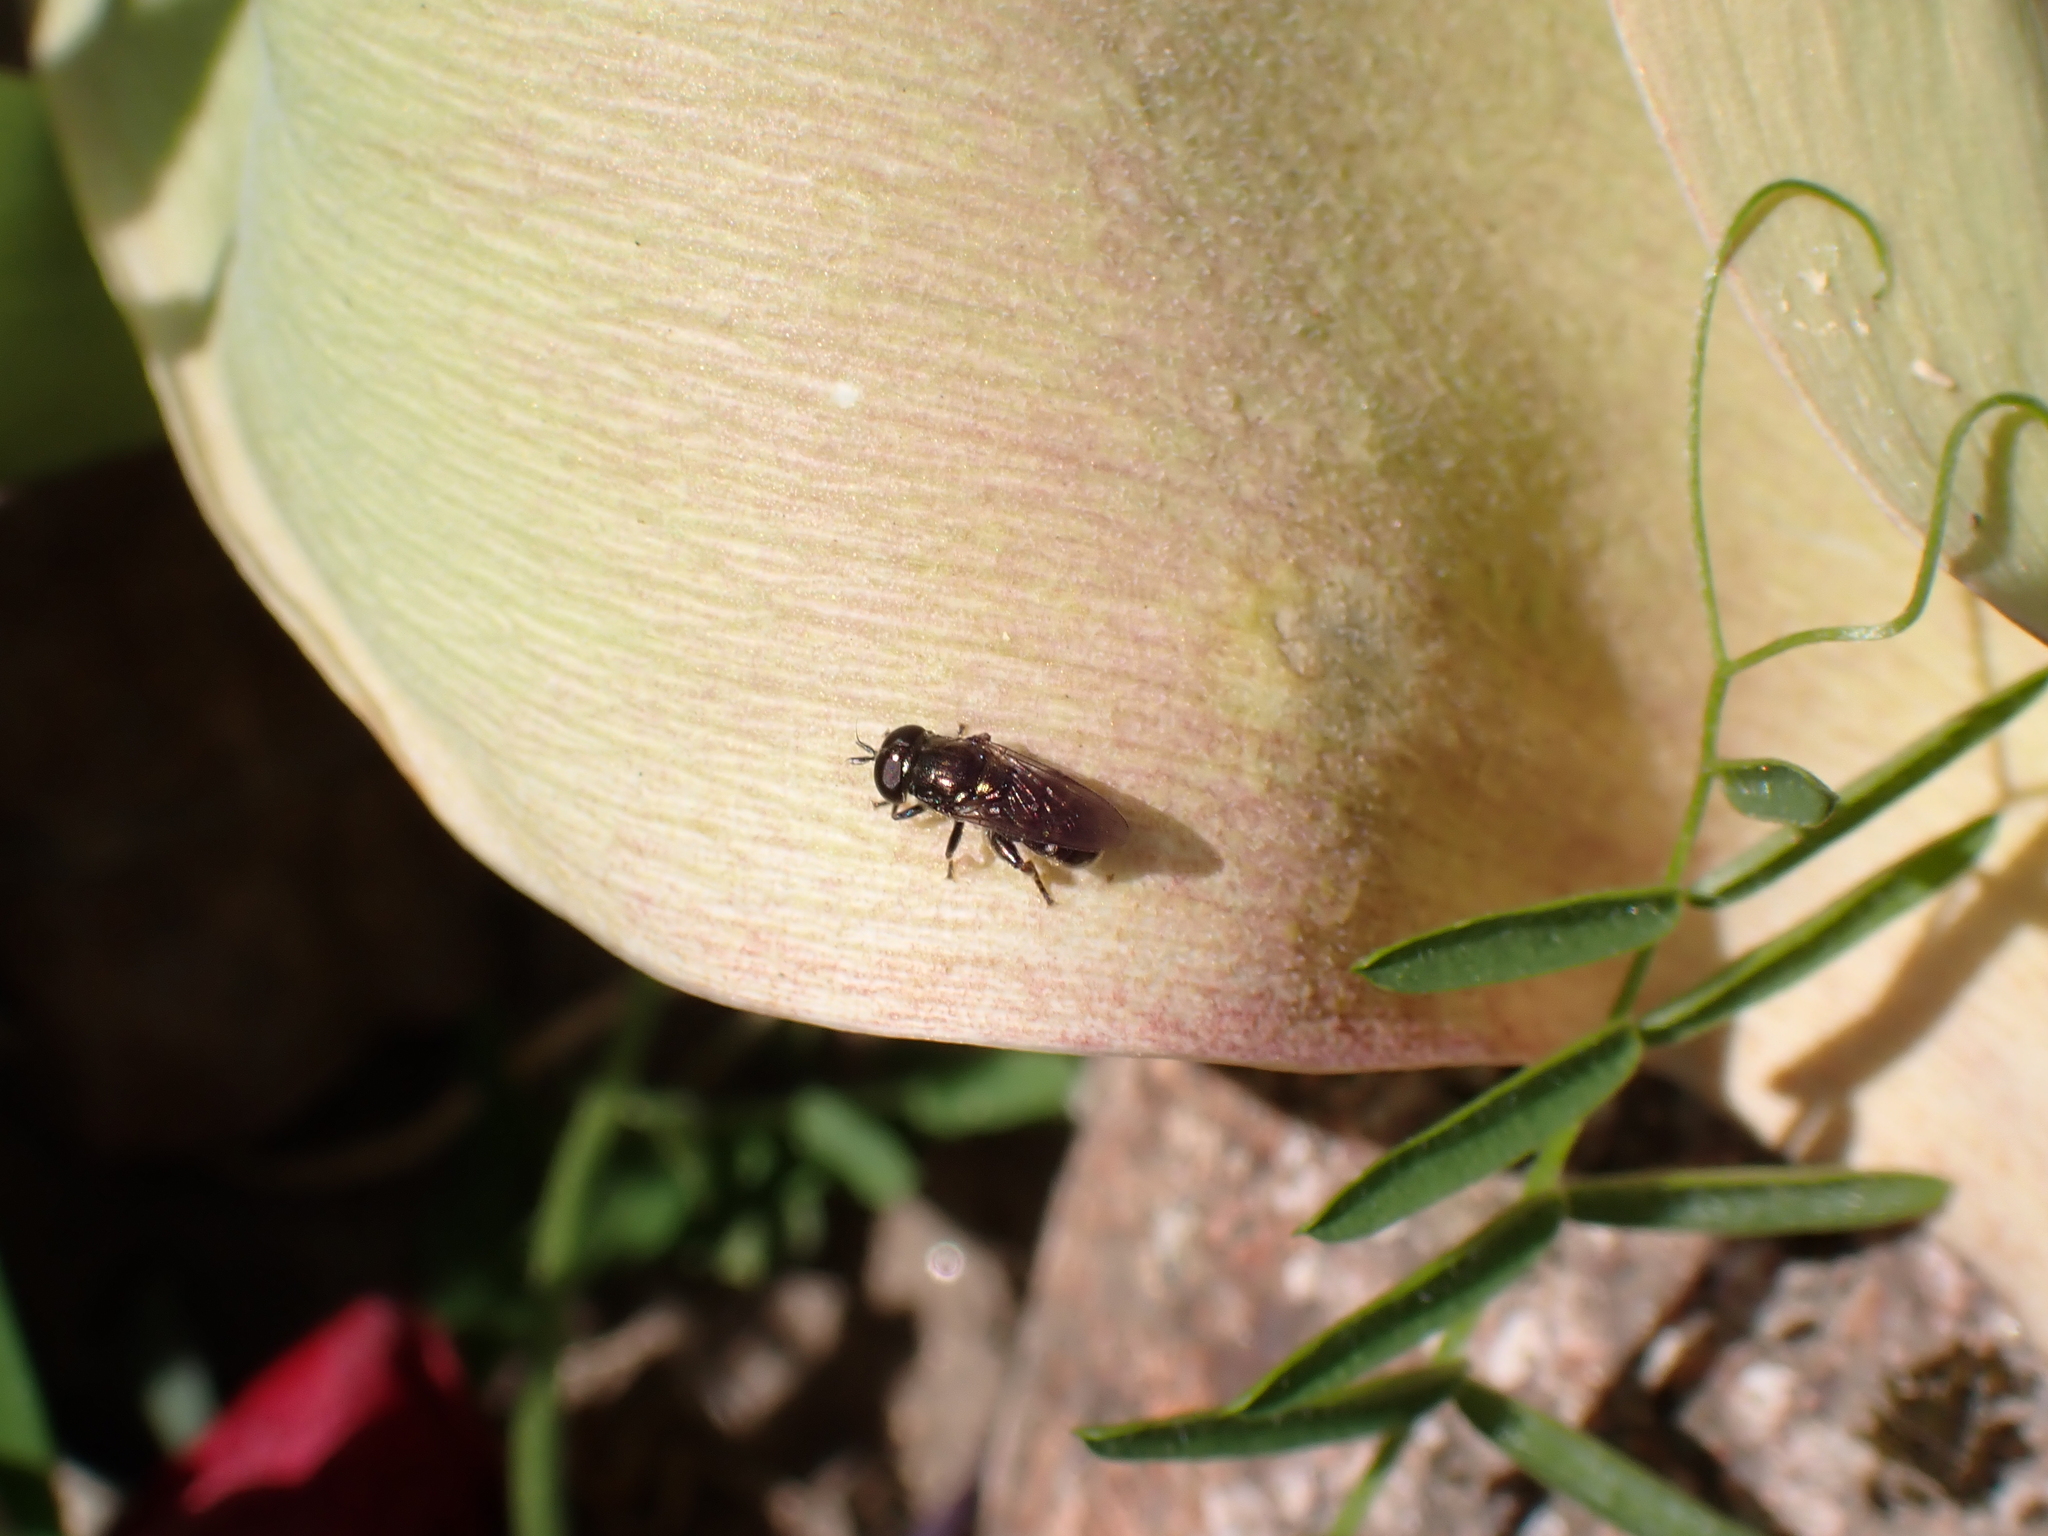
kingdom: Animalia
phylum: Arthropoda
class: Insecta
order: Diptera
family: Syrphidae
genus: Eumerus
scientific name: Eumerus
